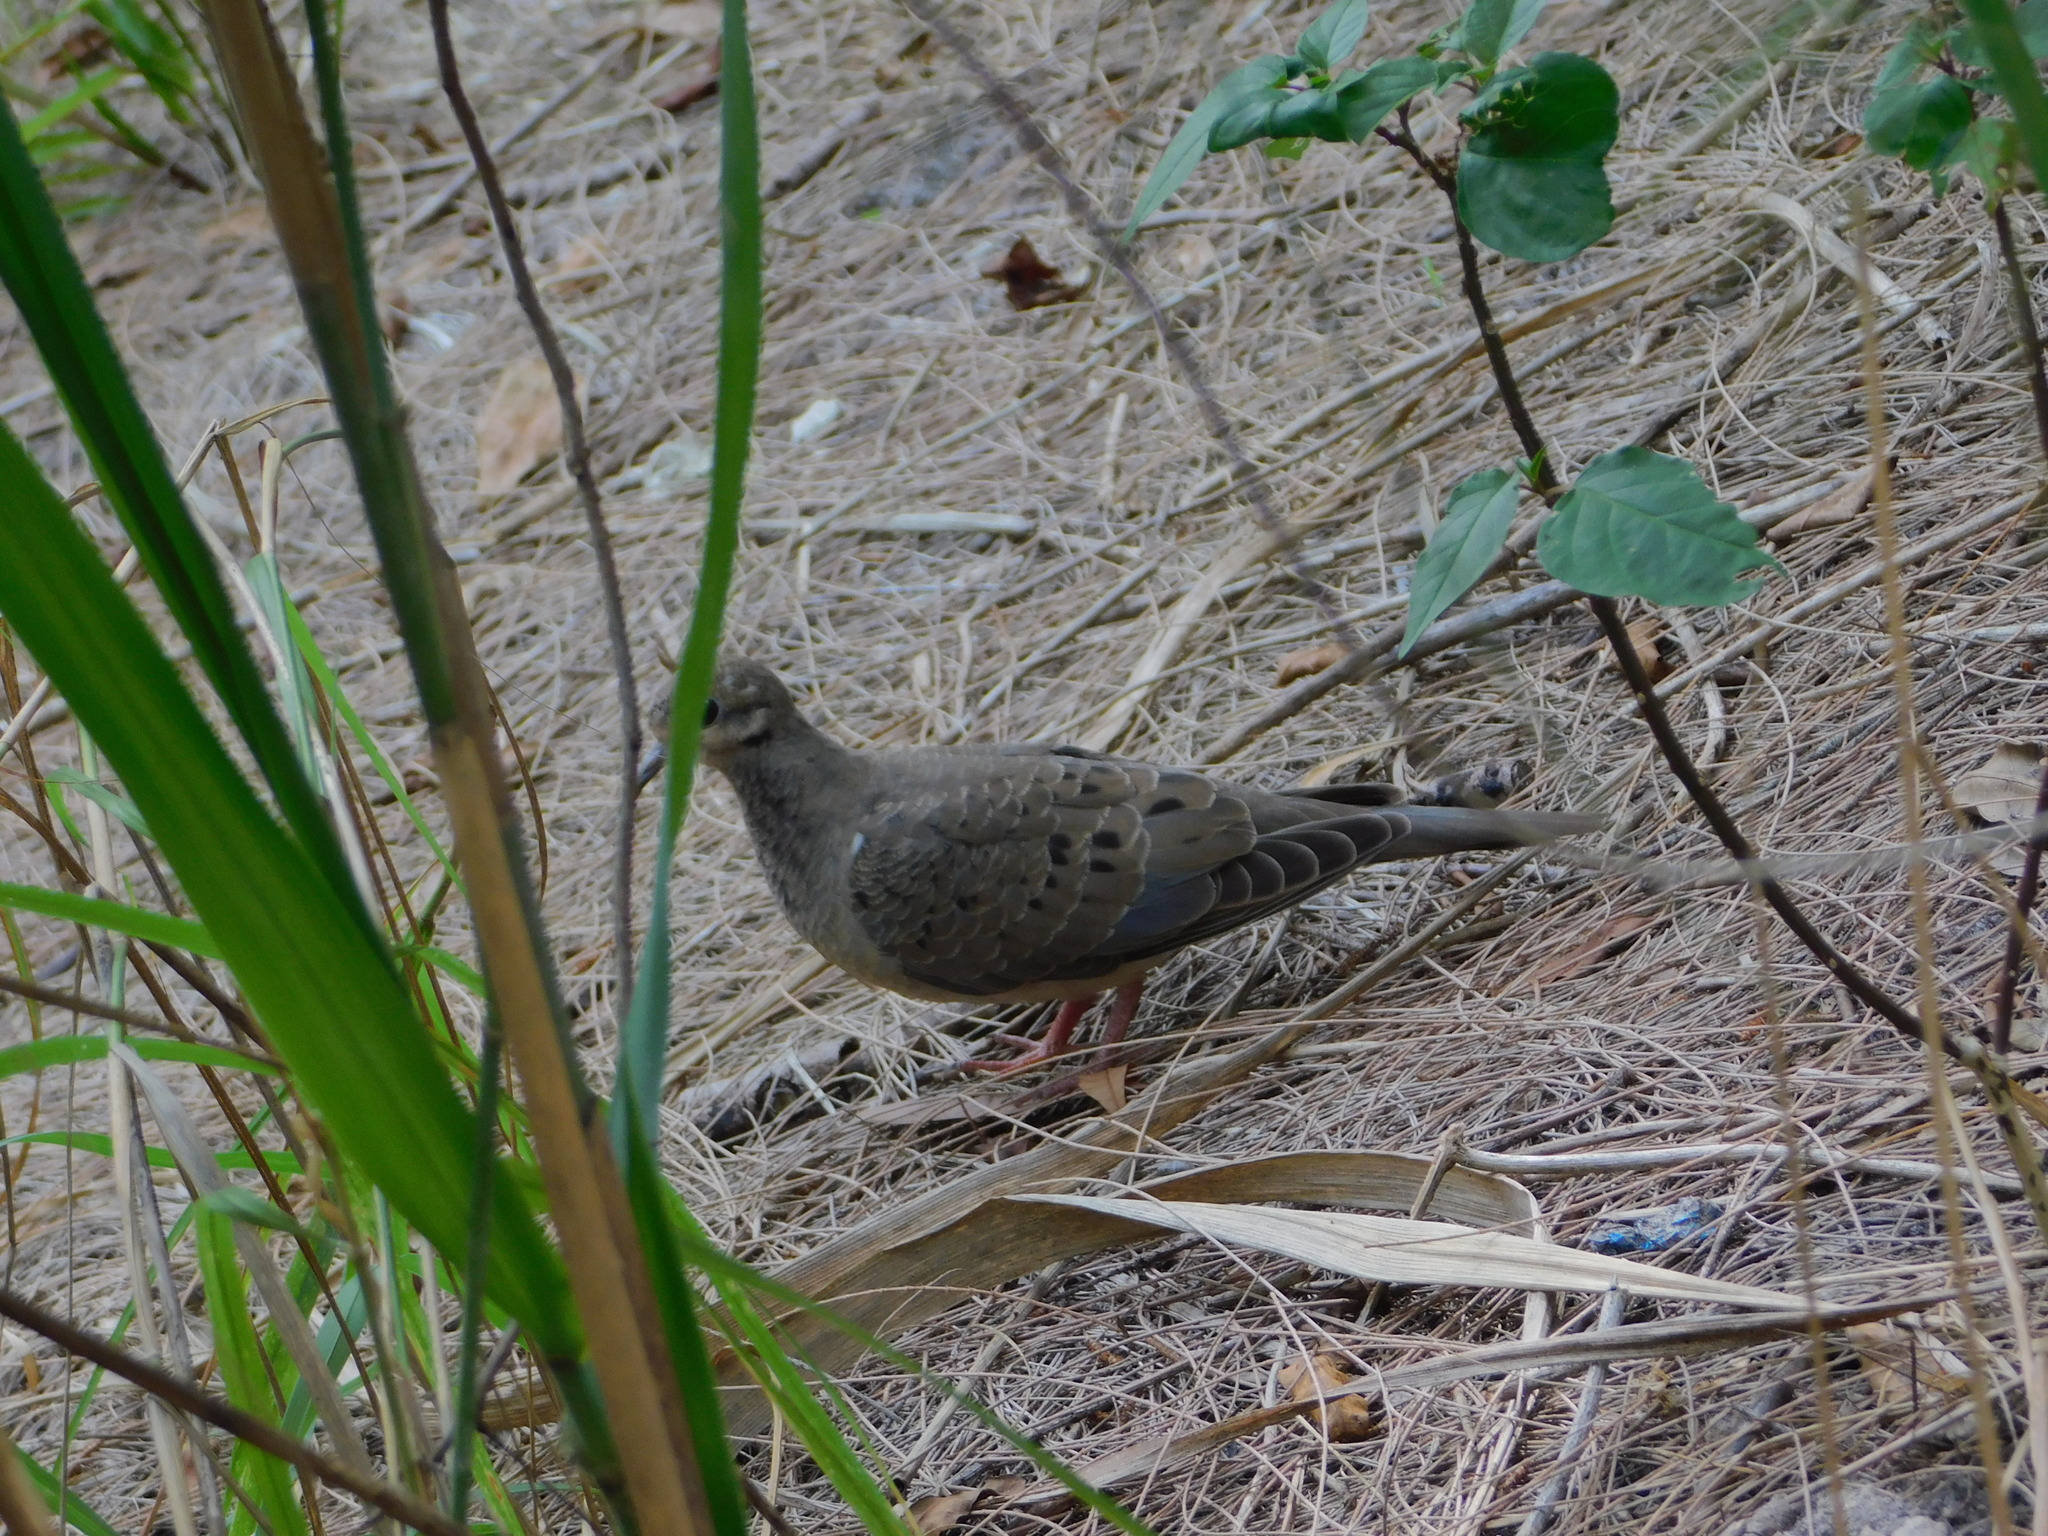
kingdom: Animalia
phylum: Chordata
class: Aves
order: Columbiformes
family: Columbidae
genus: Zenaida
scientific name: Zenaida macroura
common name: Mourning dove
